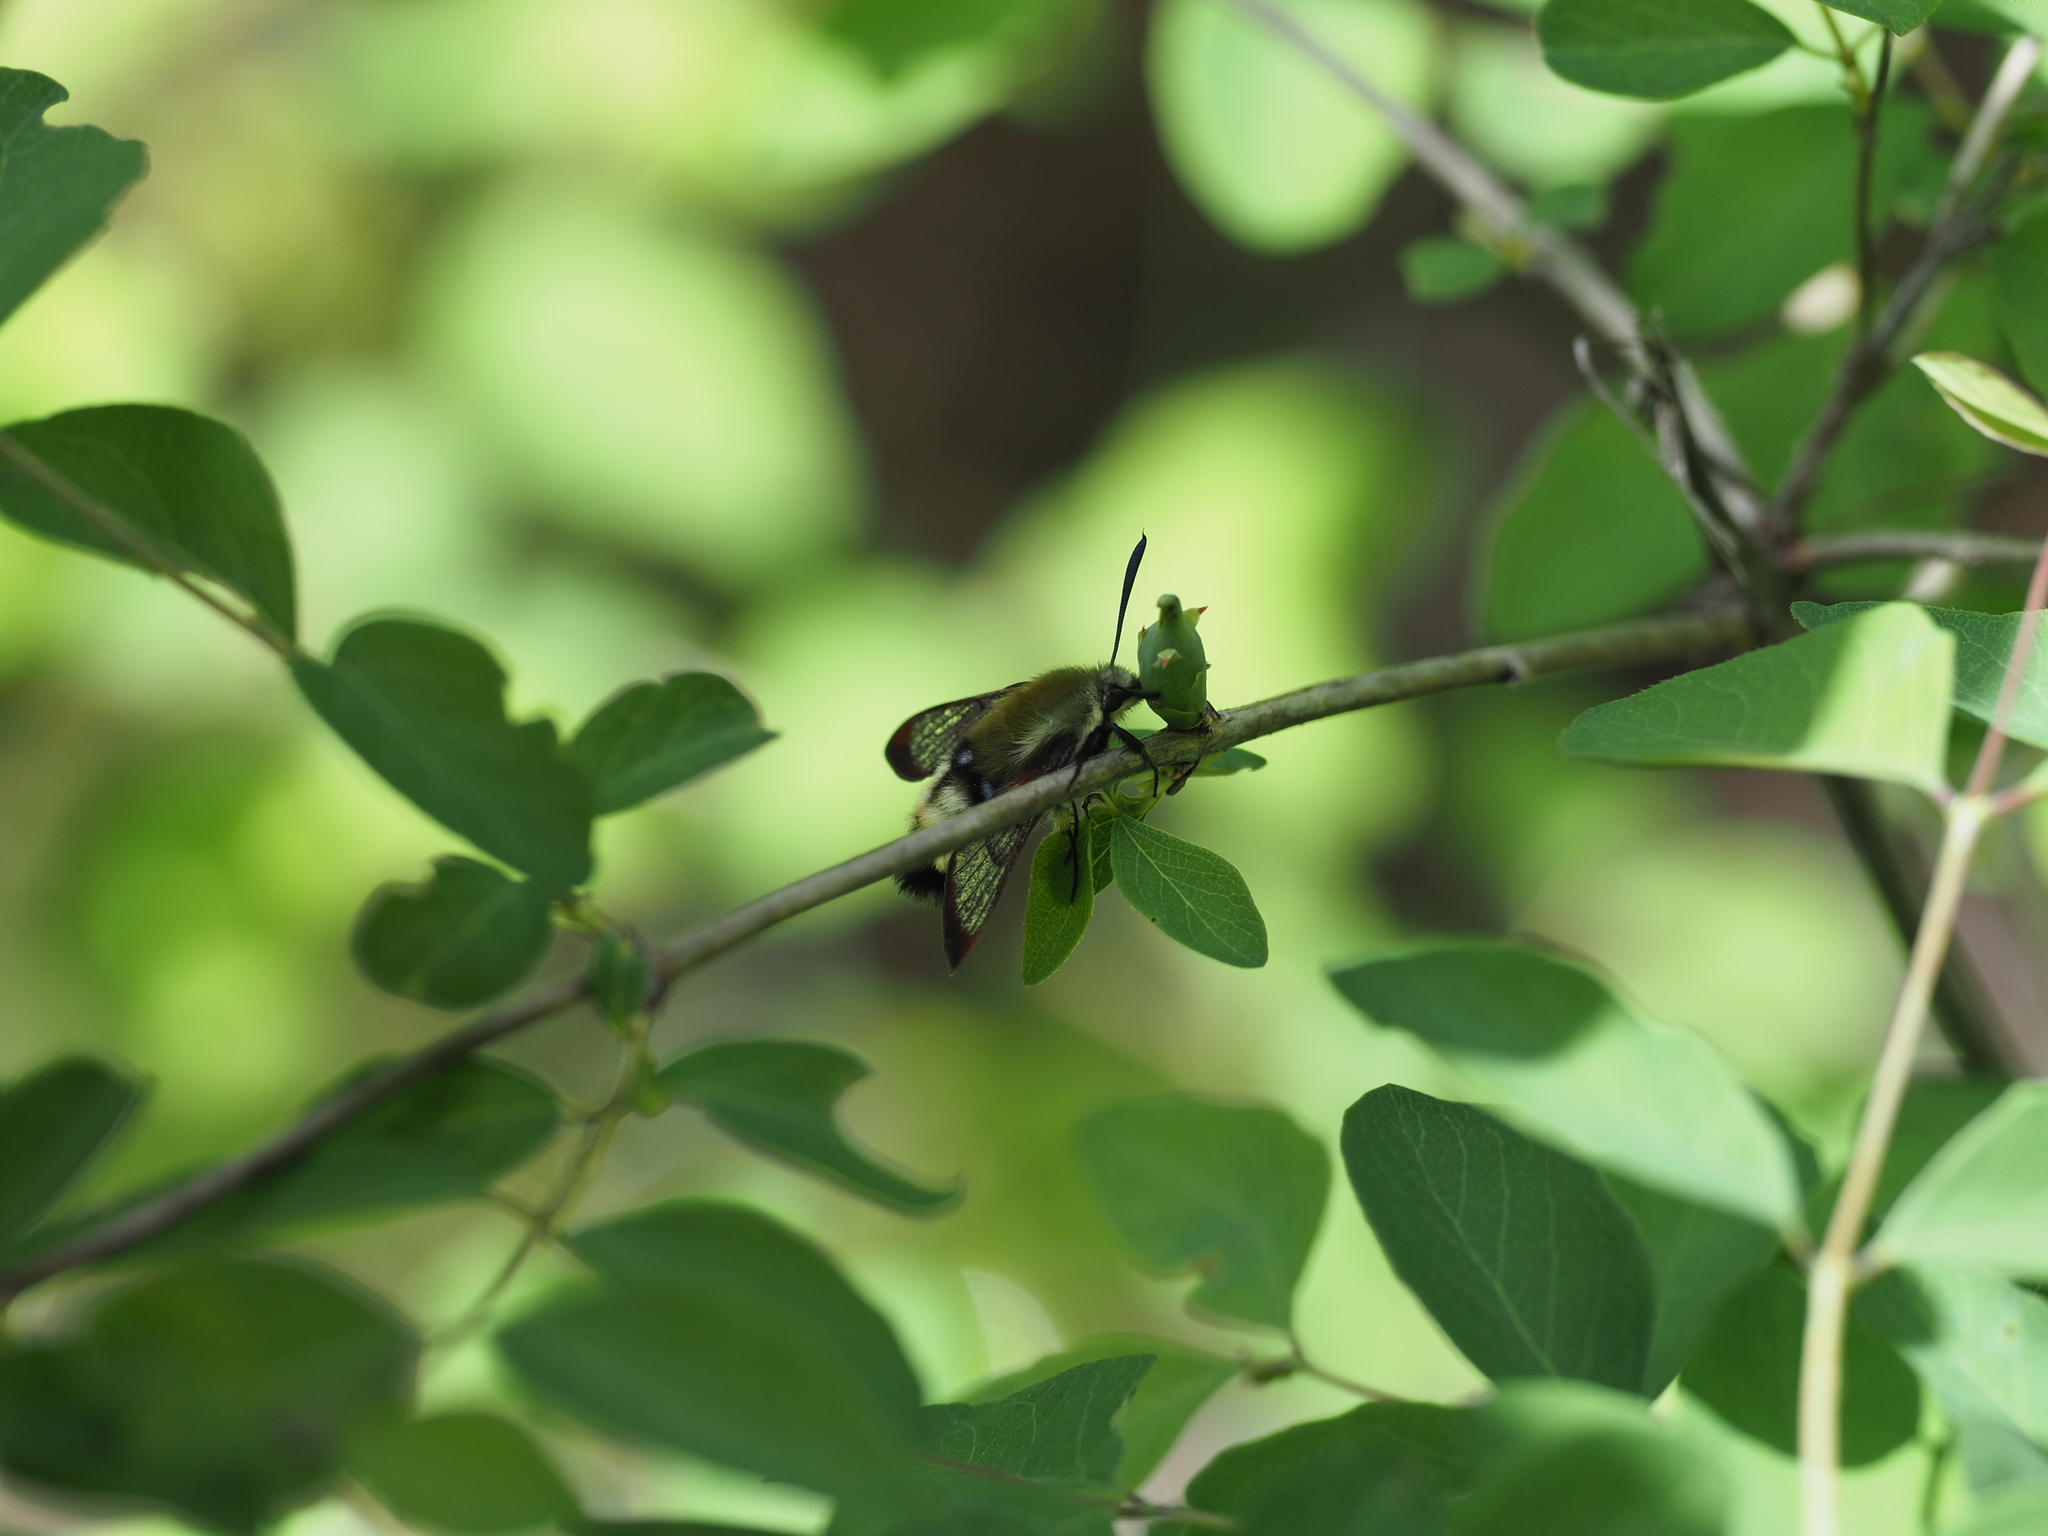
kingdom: Animalia
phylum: Arthropoda
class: Insecta
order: Lepidoptera
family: Sphingidae
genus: Hemaris
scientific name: Hemaris thetis
